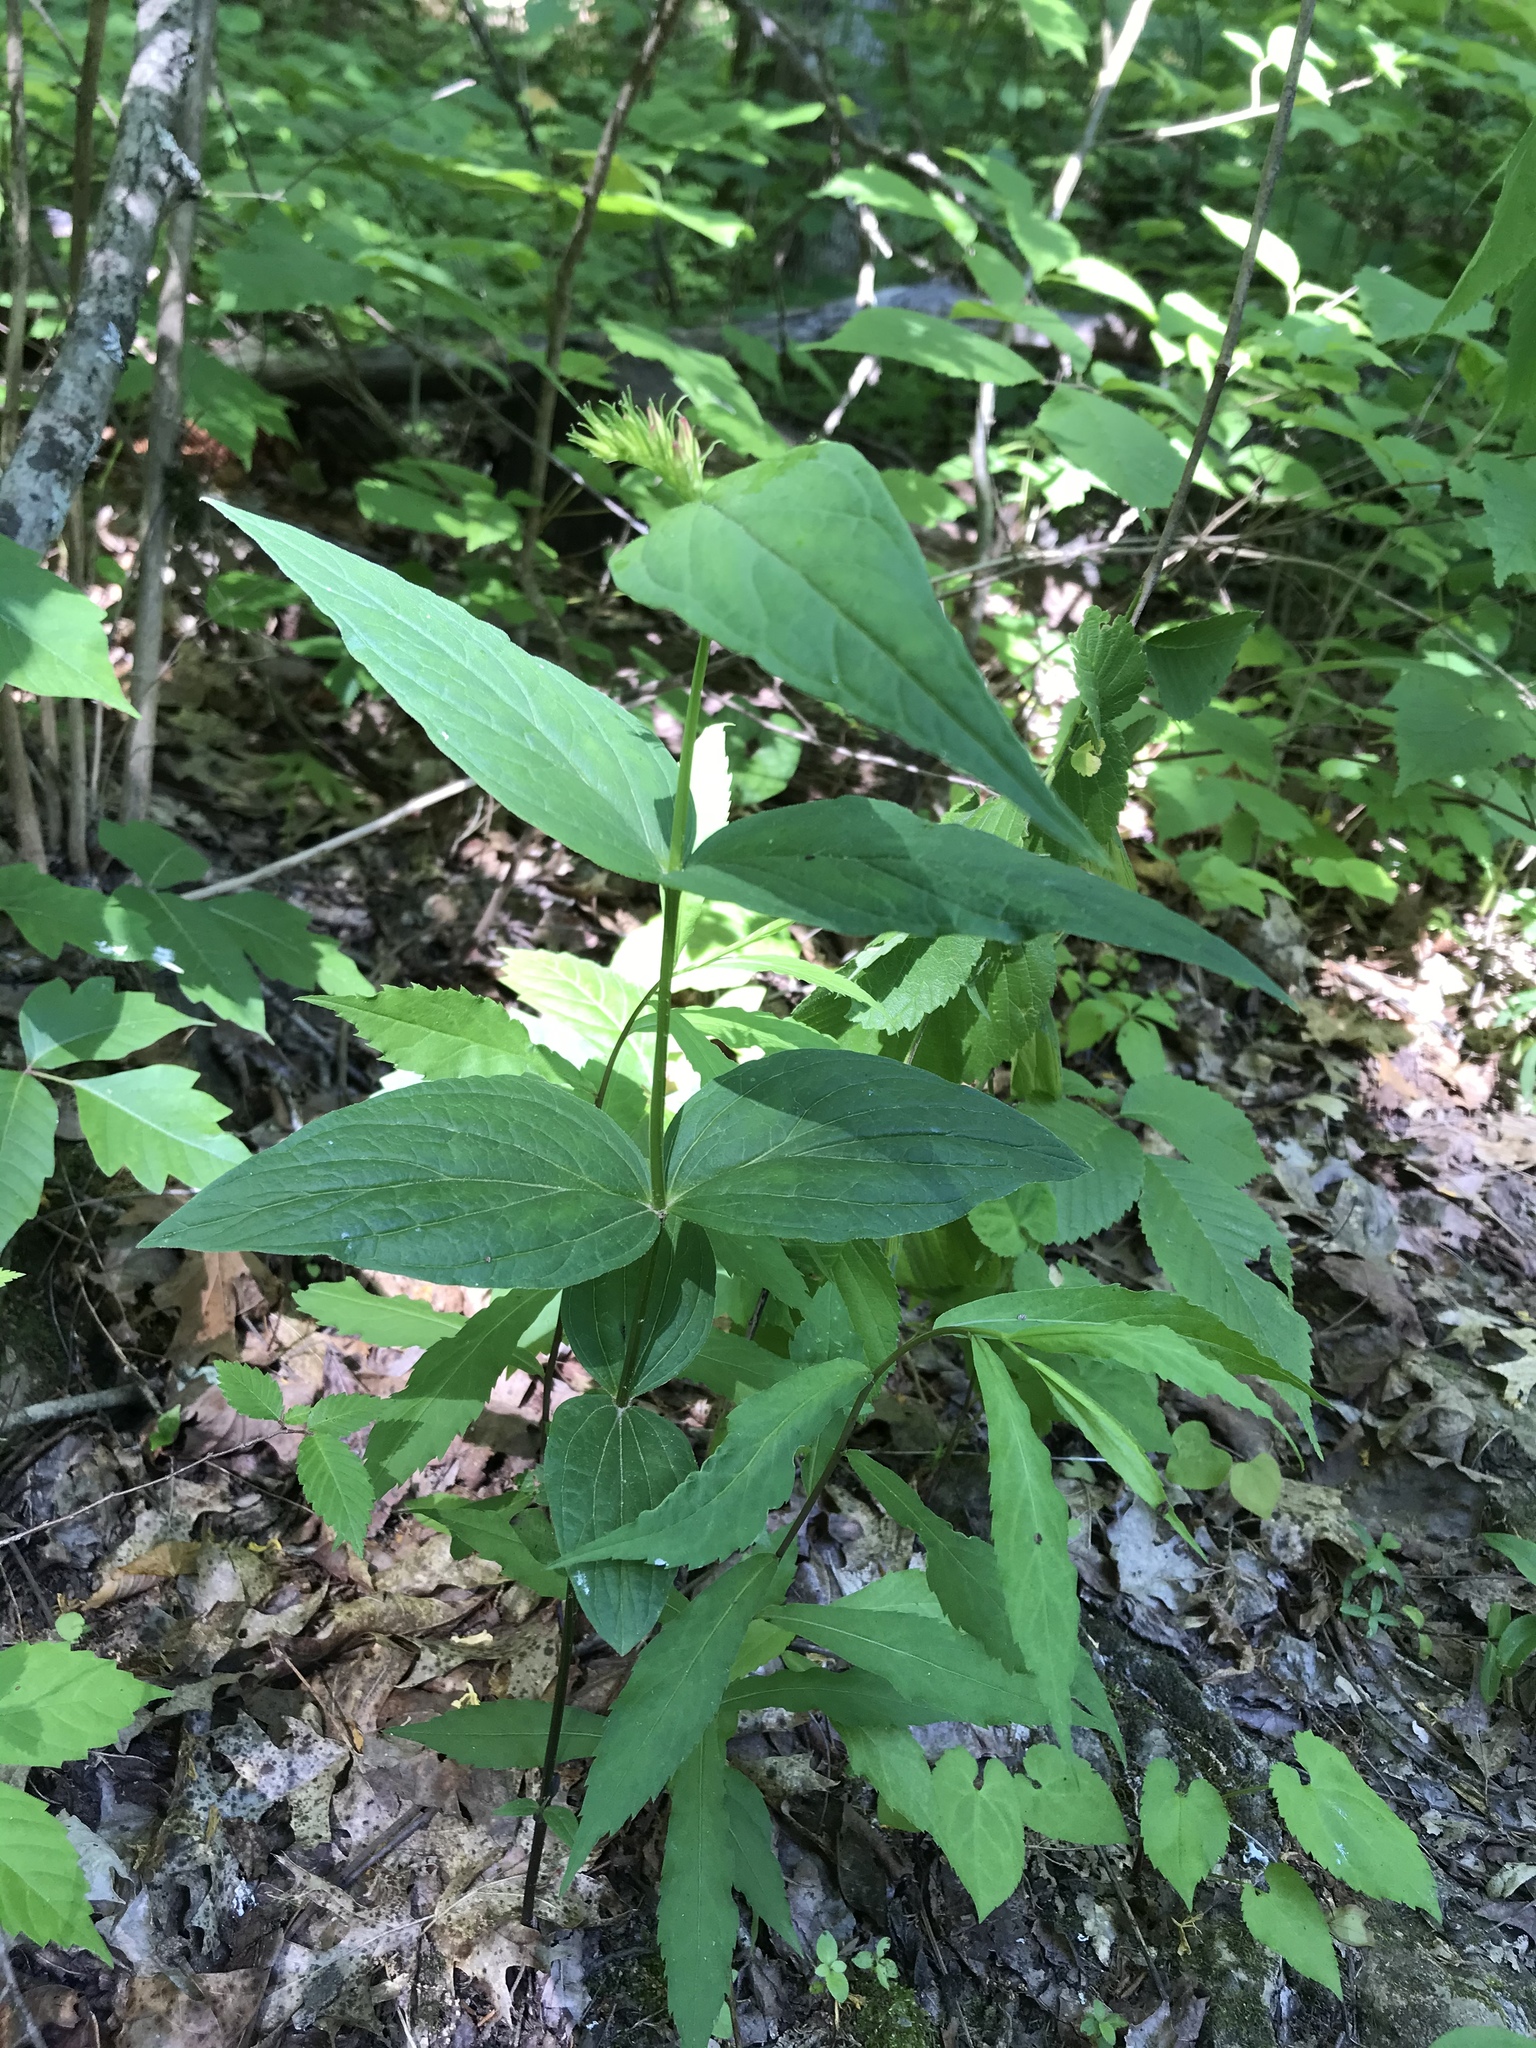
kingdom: Plantae
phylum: Tracheophyta
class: Magnoliopsida
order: Gentianales
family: Loganiaceae
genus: Spigelia
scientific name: Spigelia marilandica
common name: Indian-pink
